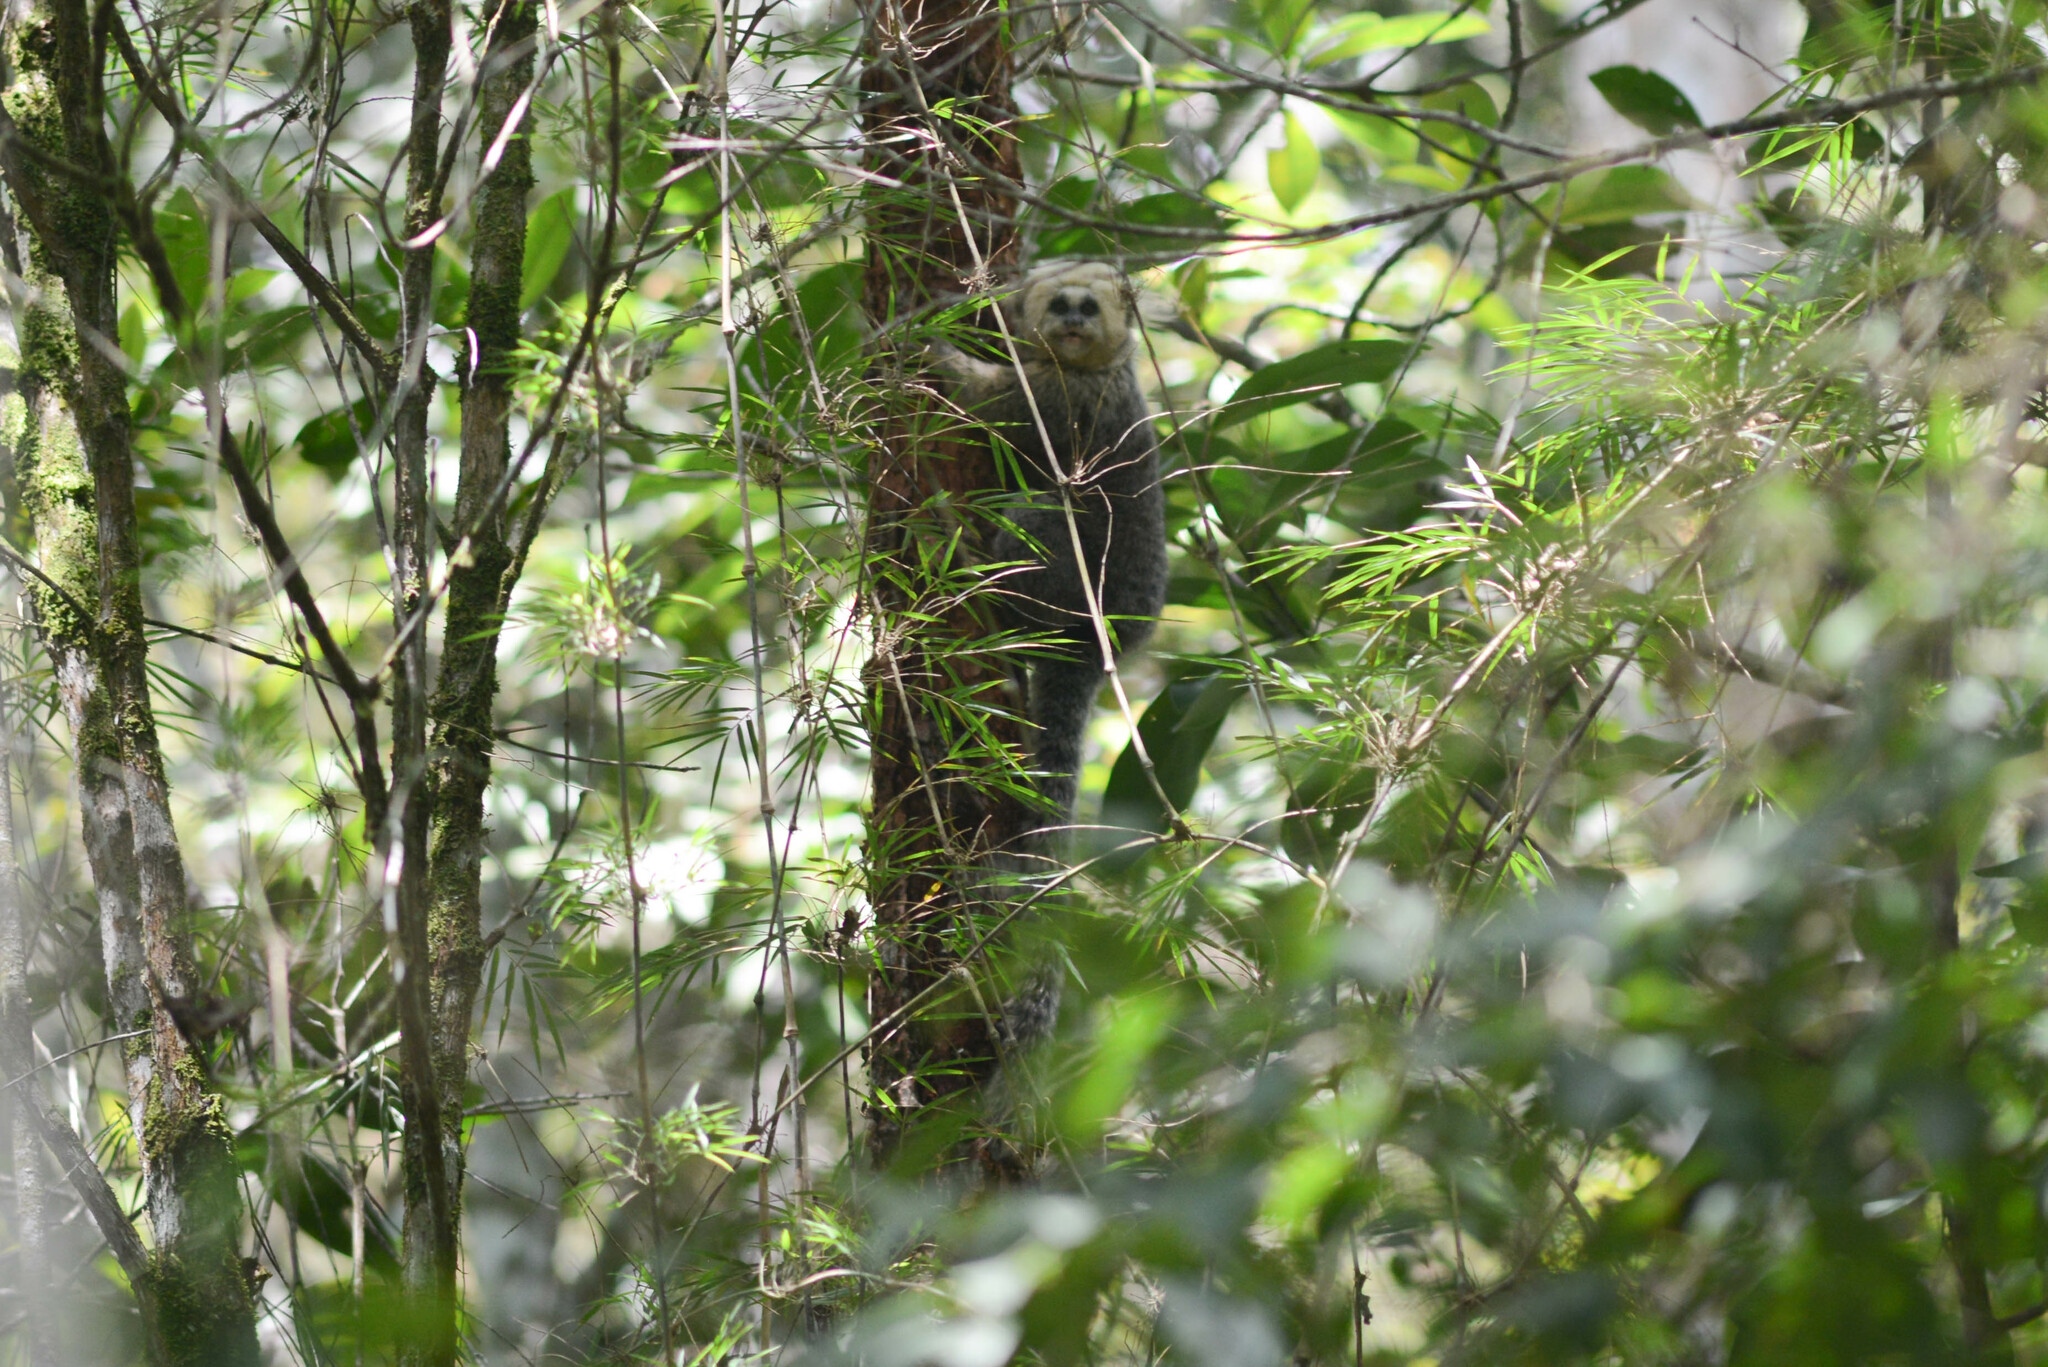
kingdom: Animalia
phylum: Chordata
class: Mammalia
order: Primates
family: Callitrichidae
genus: Callithrix
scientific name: Callithrix flaviceps
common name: Buffy-headed marmoset
